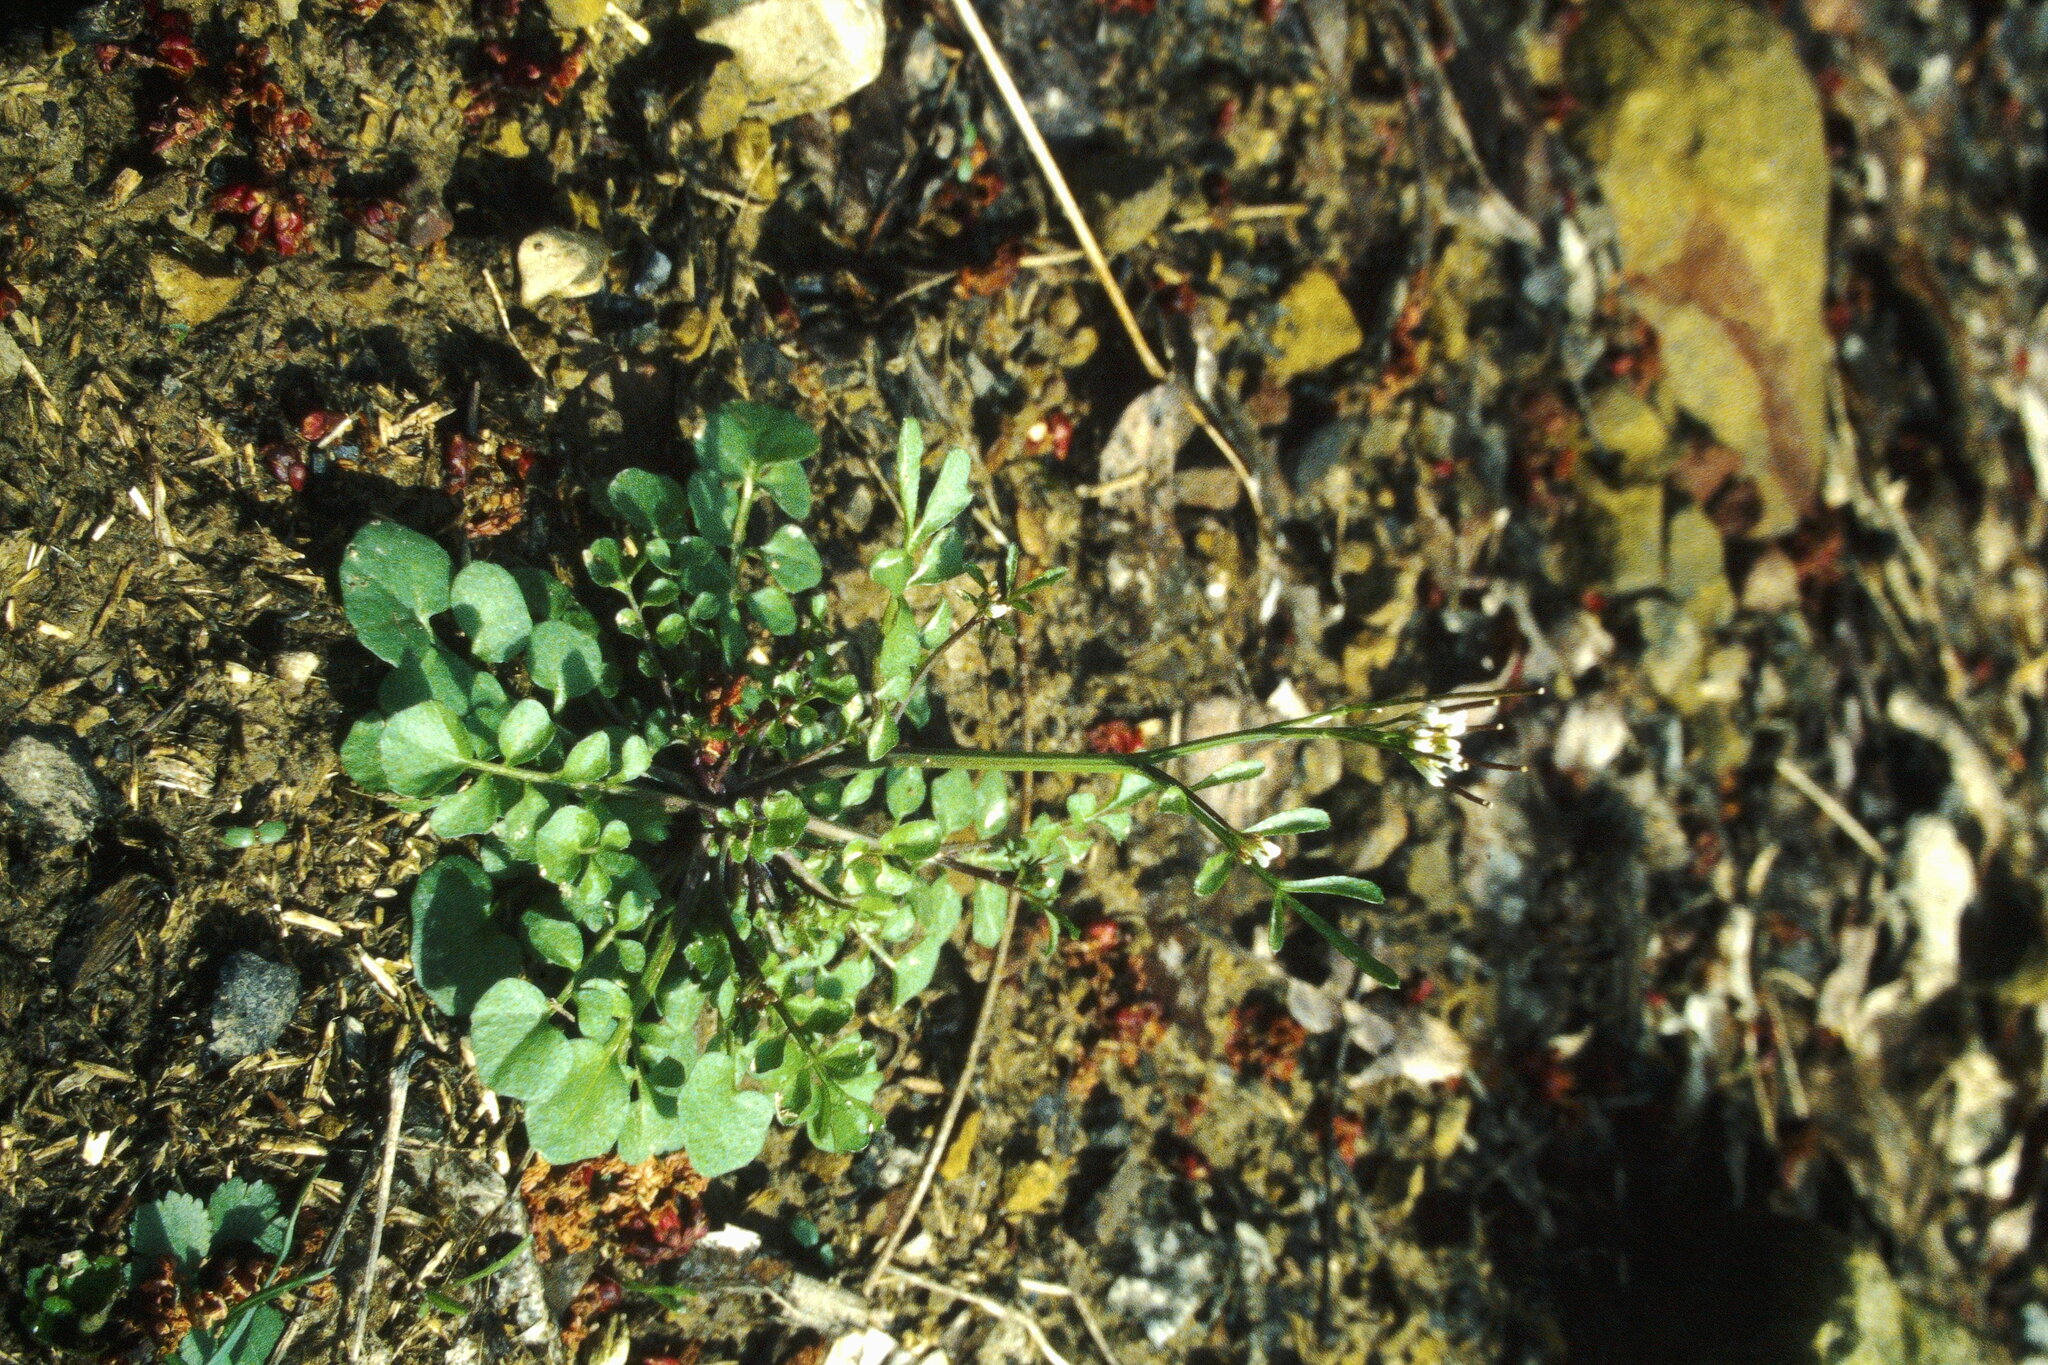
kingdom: Plantae
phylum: Tracheophyta
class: Magnoliopsida
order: Brassicales
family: Brassicaceae
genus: Barbarea
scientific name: Barbarea vulgaris
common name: Cressy-greens
